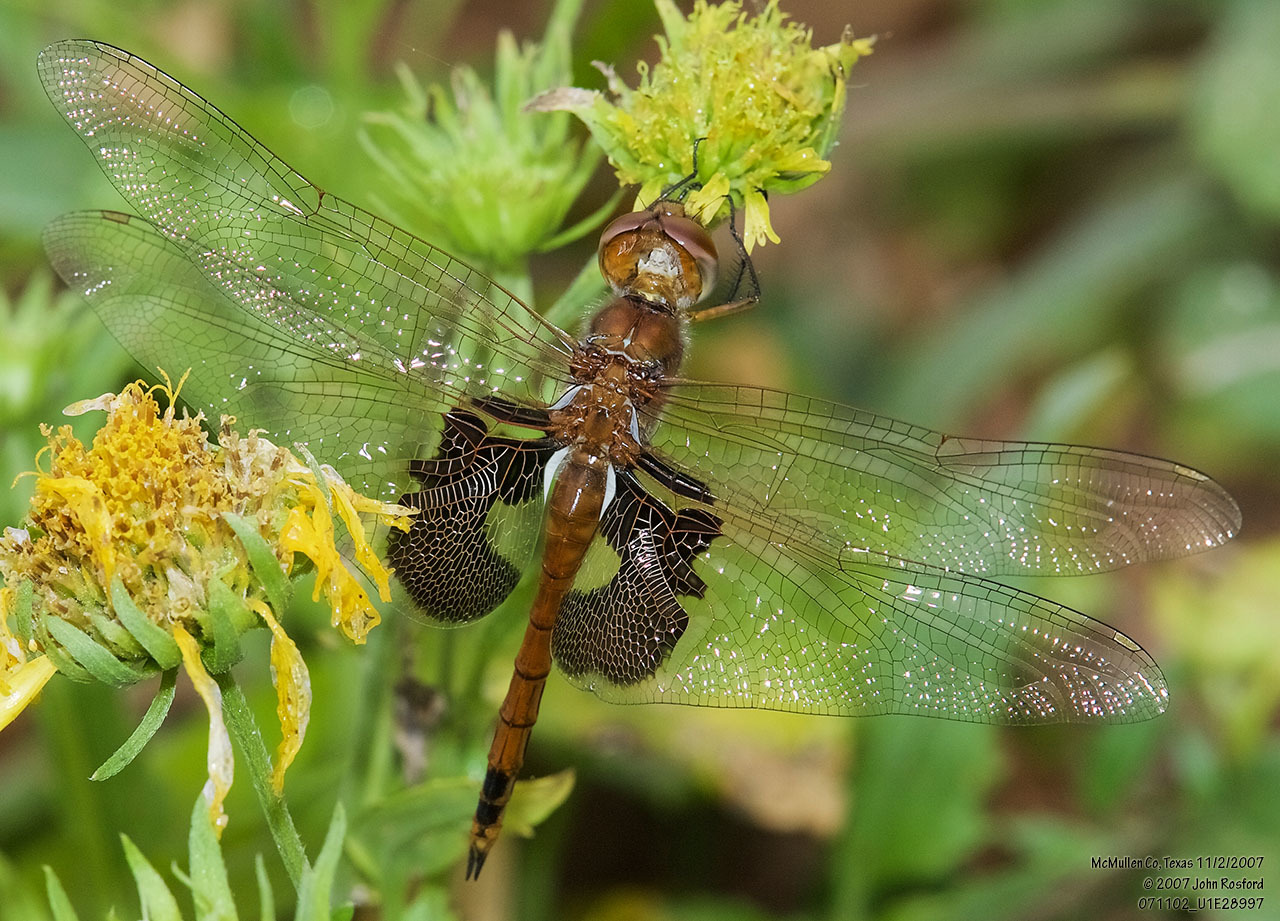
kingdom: Animalia
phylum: Arthropoda
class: Insecta
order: Odonata
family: Libellulidae
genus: Tramea
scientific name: Tramea onusta
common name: Red saddlebags
